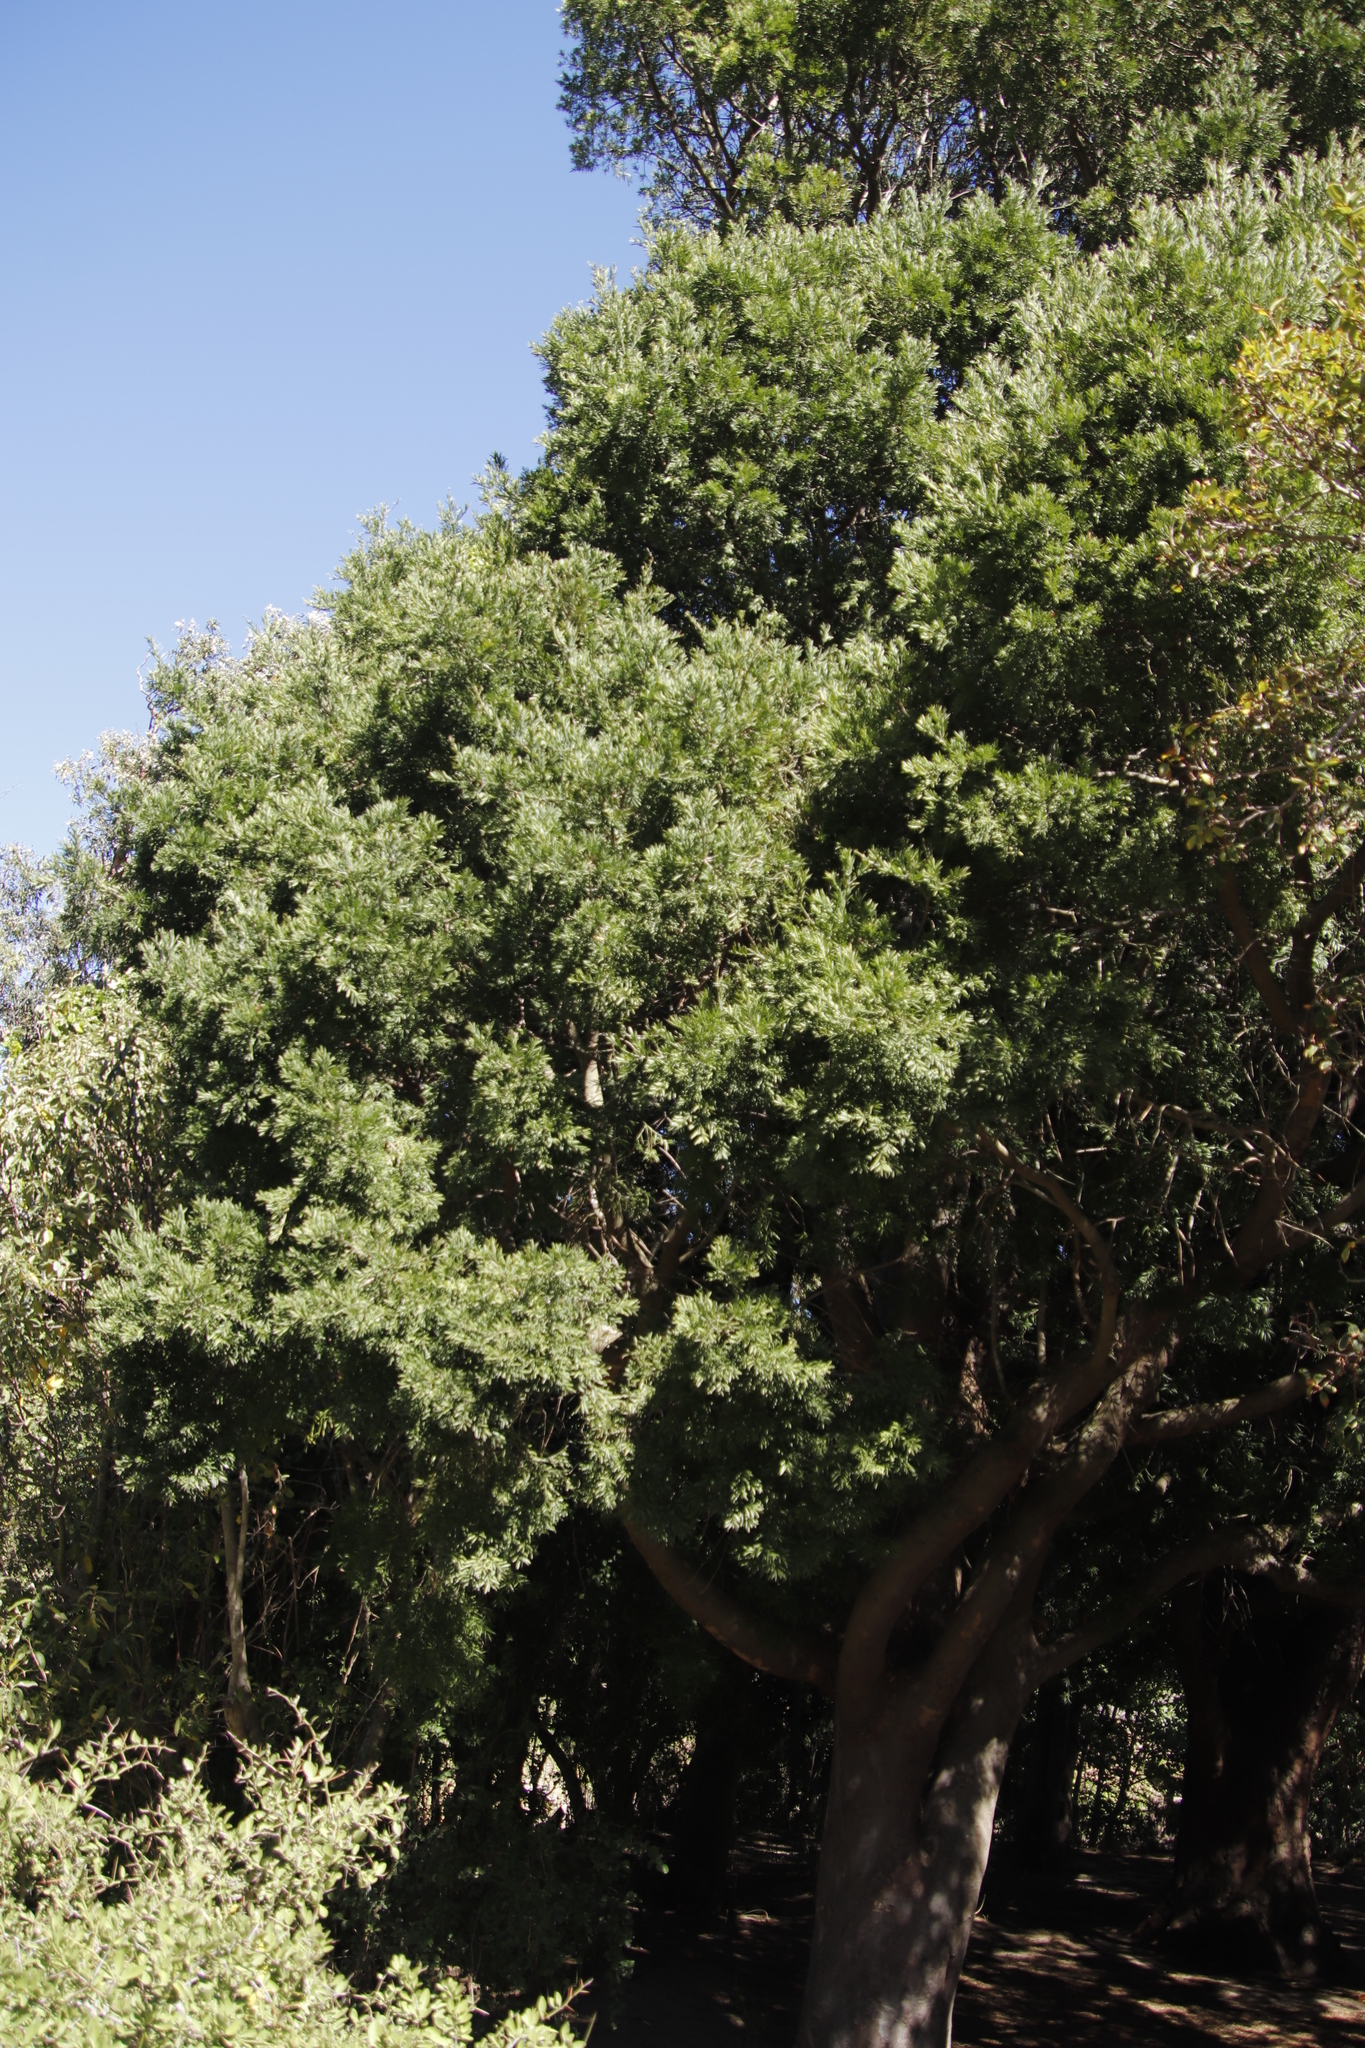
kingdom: Plantae
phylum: Tracheophyta
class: Pinopsida
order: Pinales
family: Podocarpaceae
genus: Afrocarpus
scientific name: Afrocarpus falcatus
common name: Bastard yellowwood
